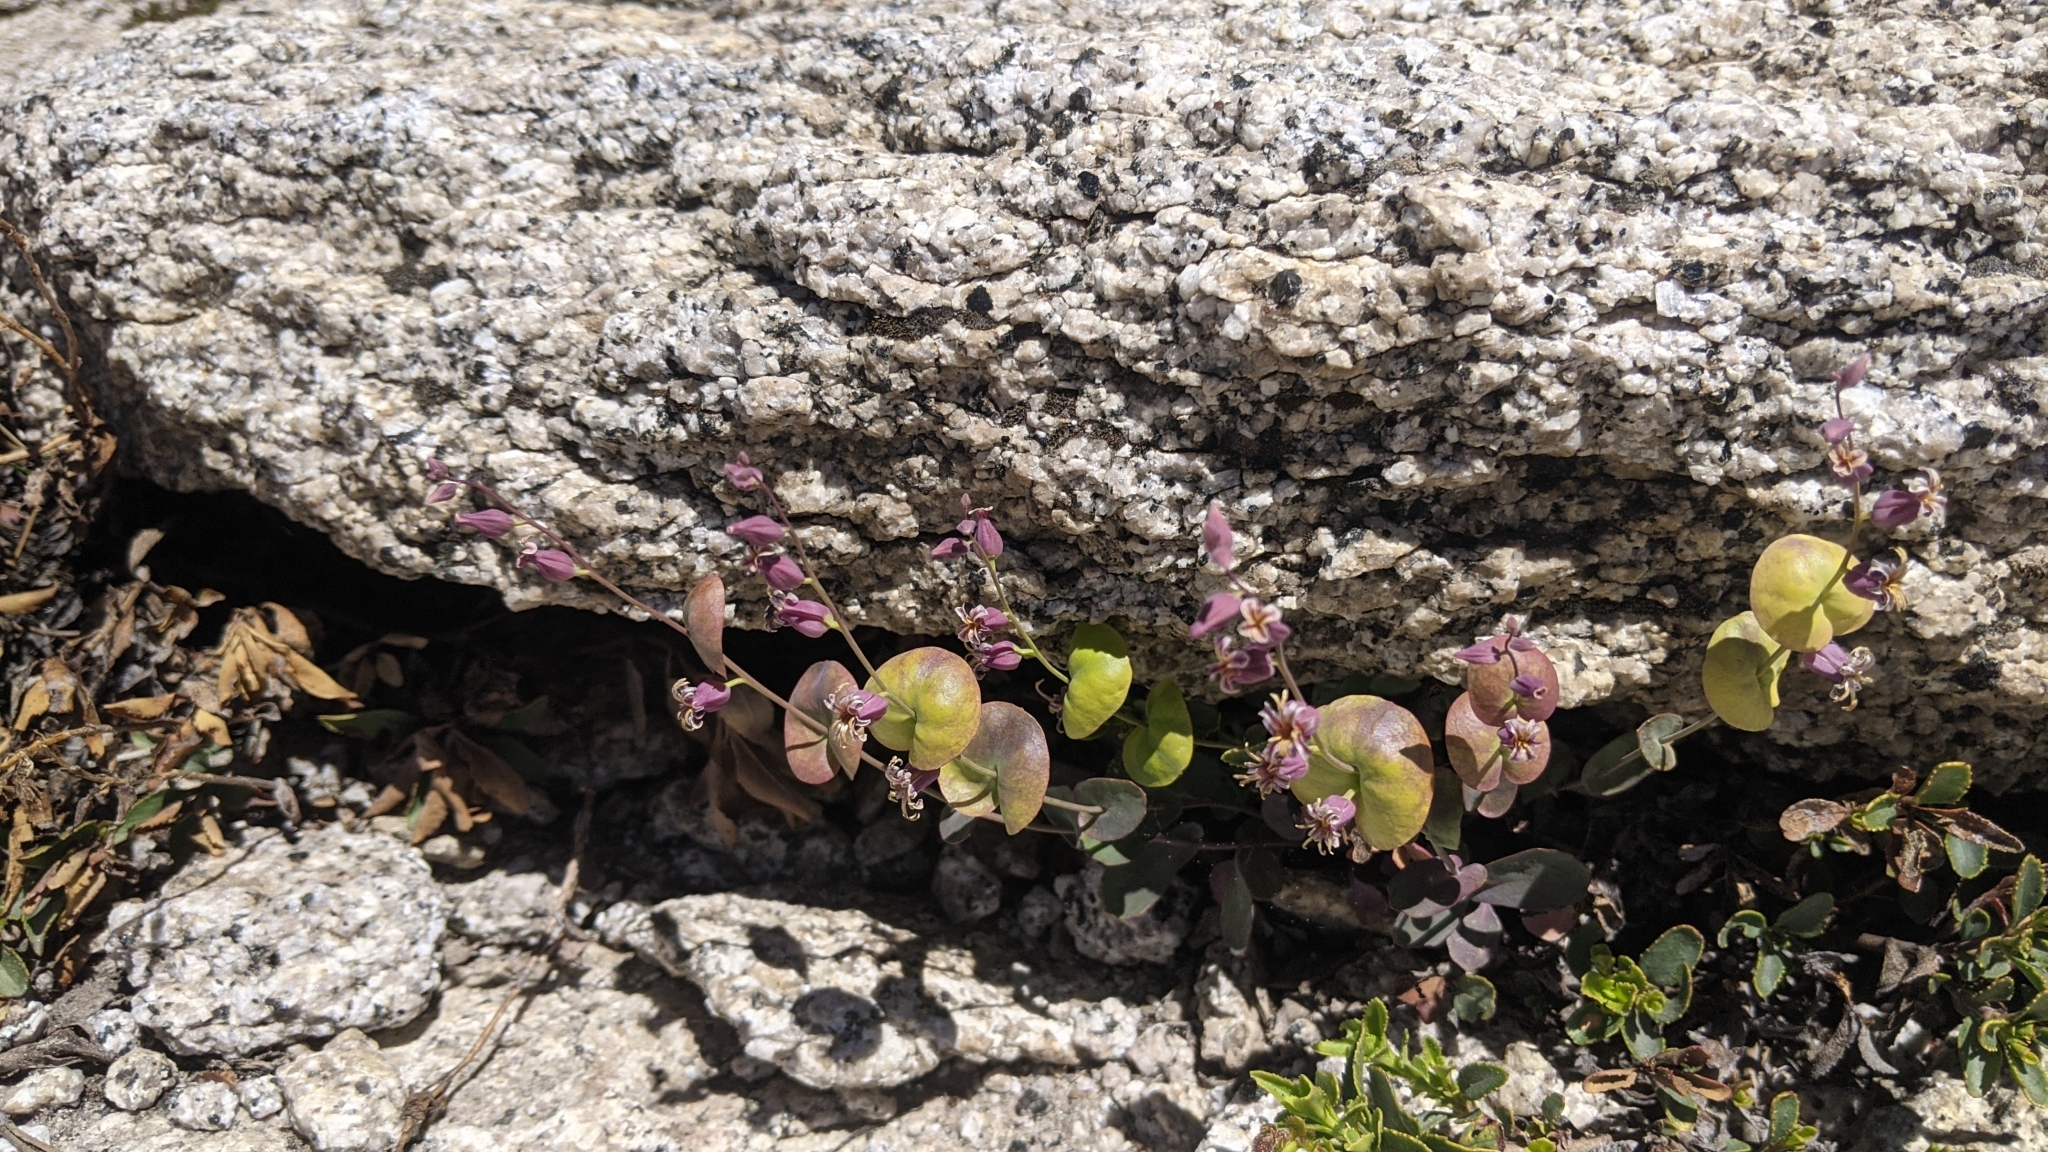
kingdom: Plantae
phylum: Tracheophyta
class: Magnoliopsida
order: Brassicales
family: Brassicaceae
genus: Streptanthus
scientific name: Streptanthus tortuosus
